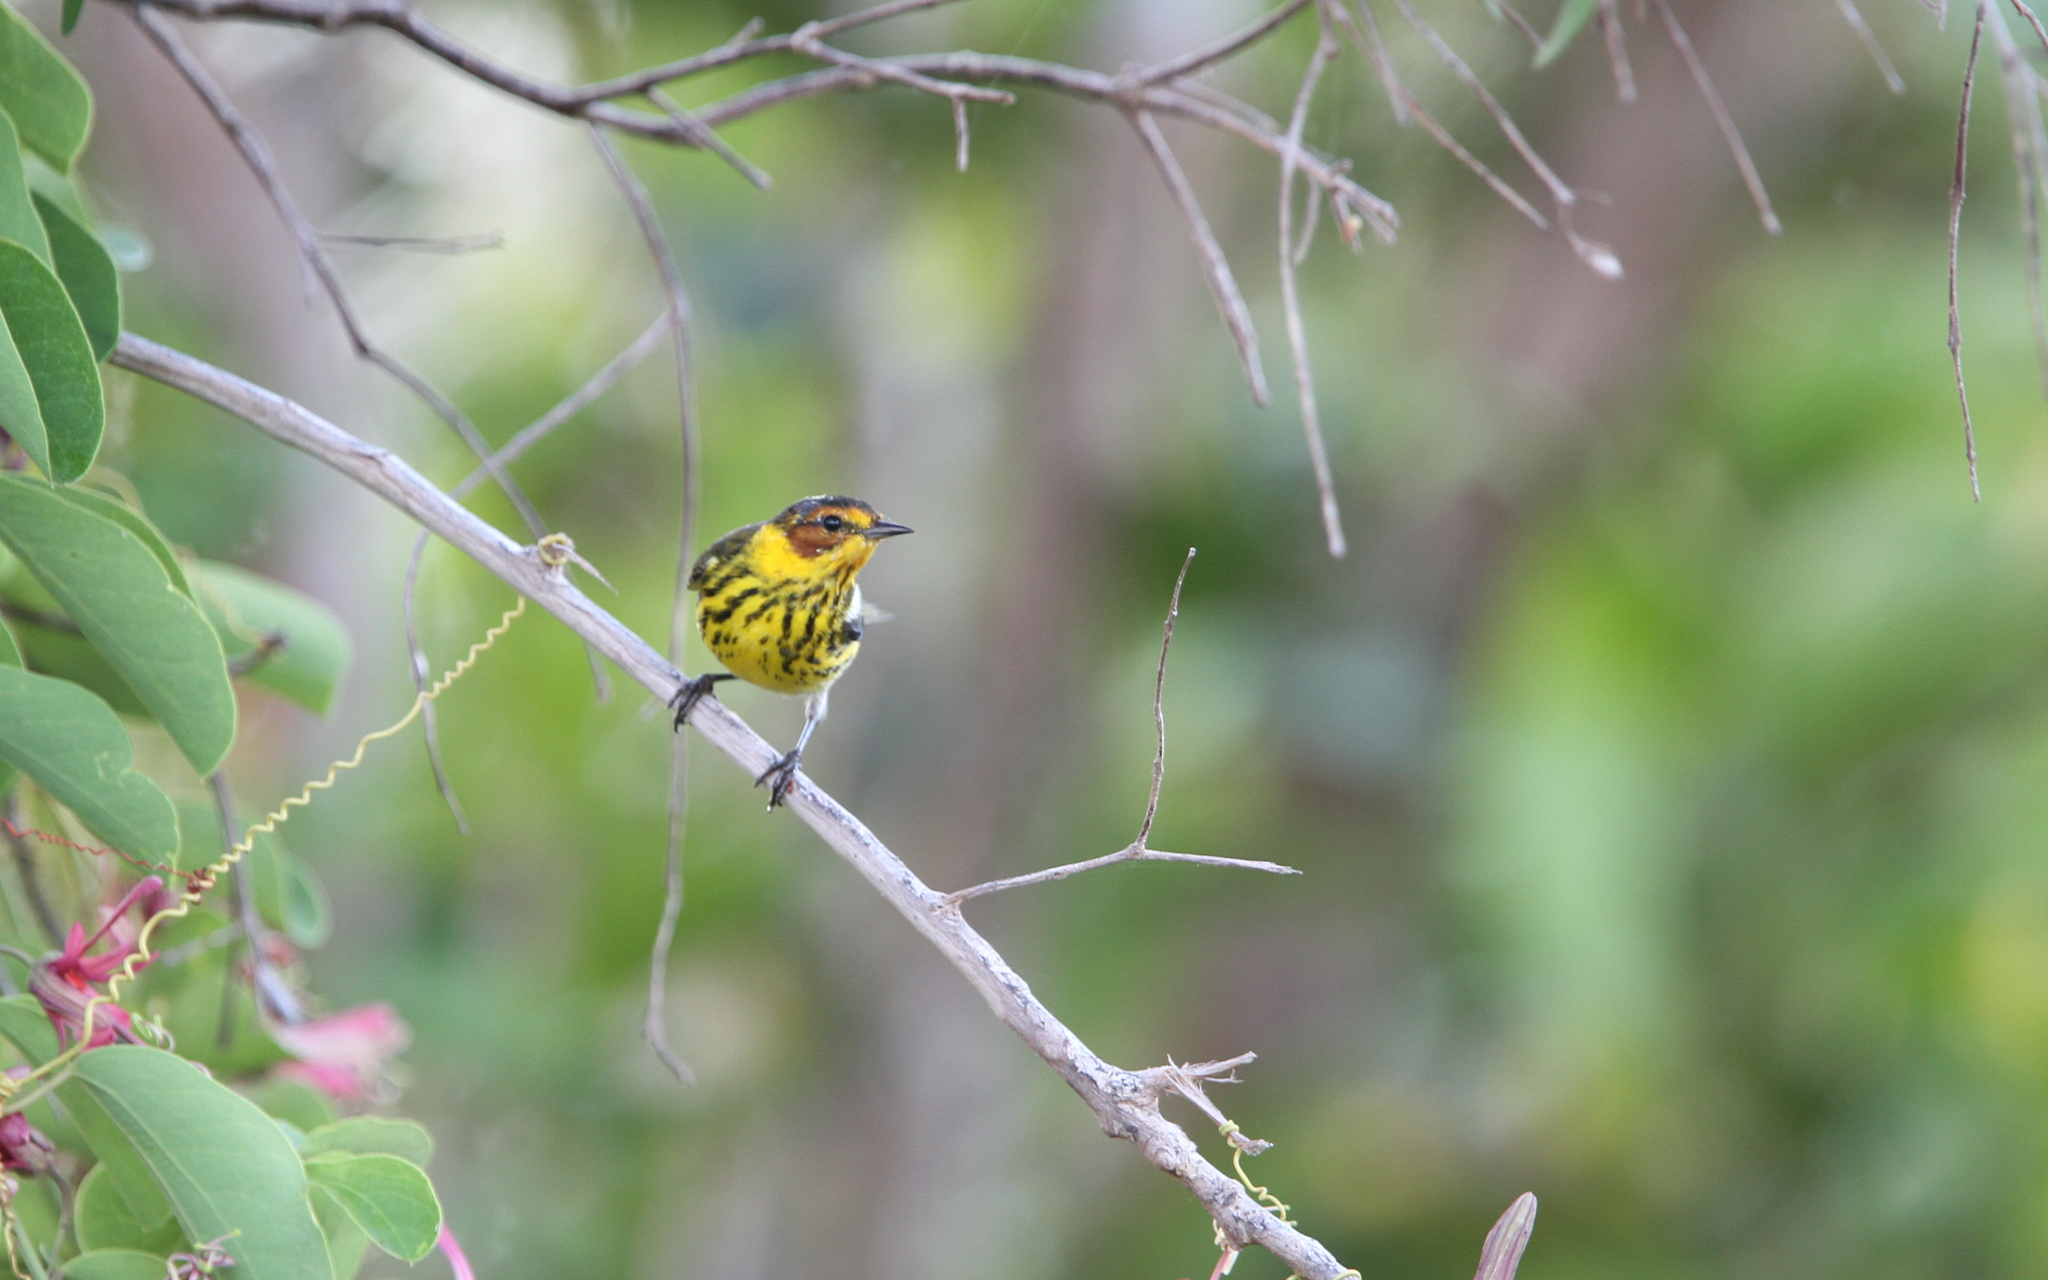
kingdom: Animalia
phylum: Chordata
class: Aves
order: Passeriformes
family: Parulidae
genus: Setophaga
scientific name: Setophaga tigrina
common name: Cape may warbler
